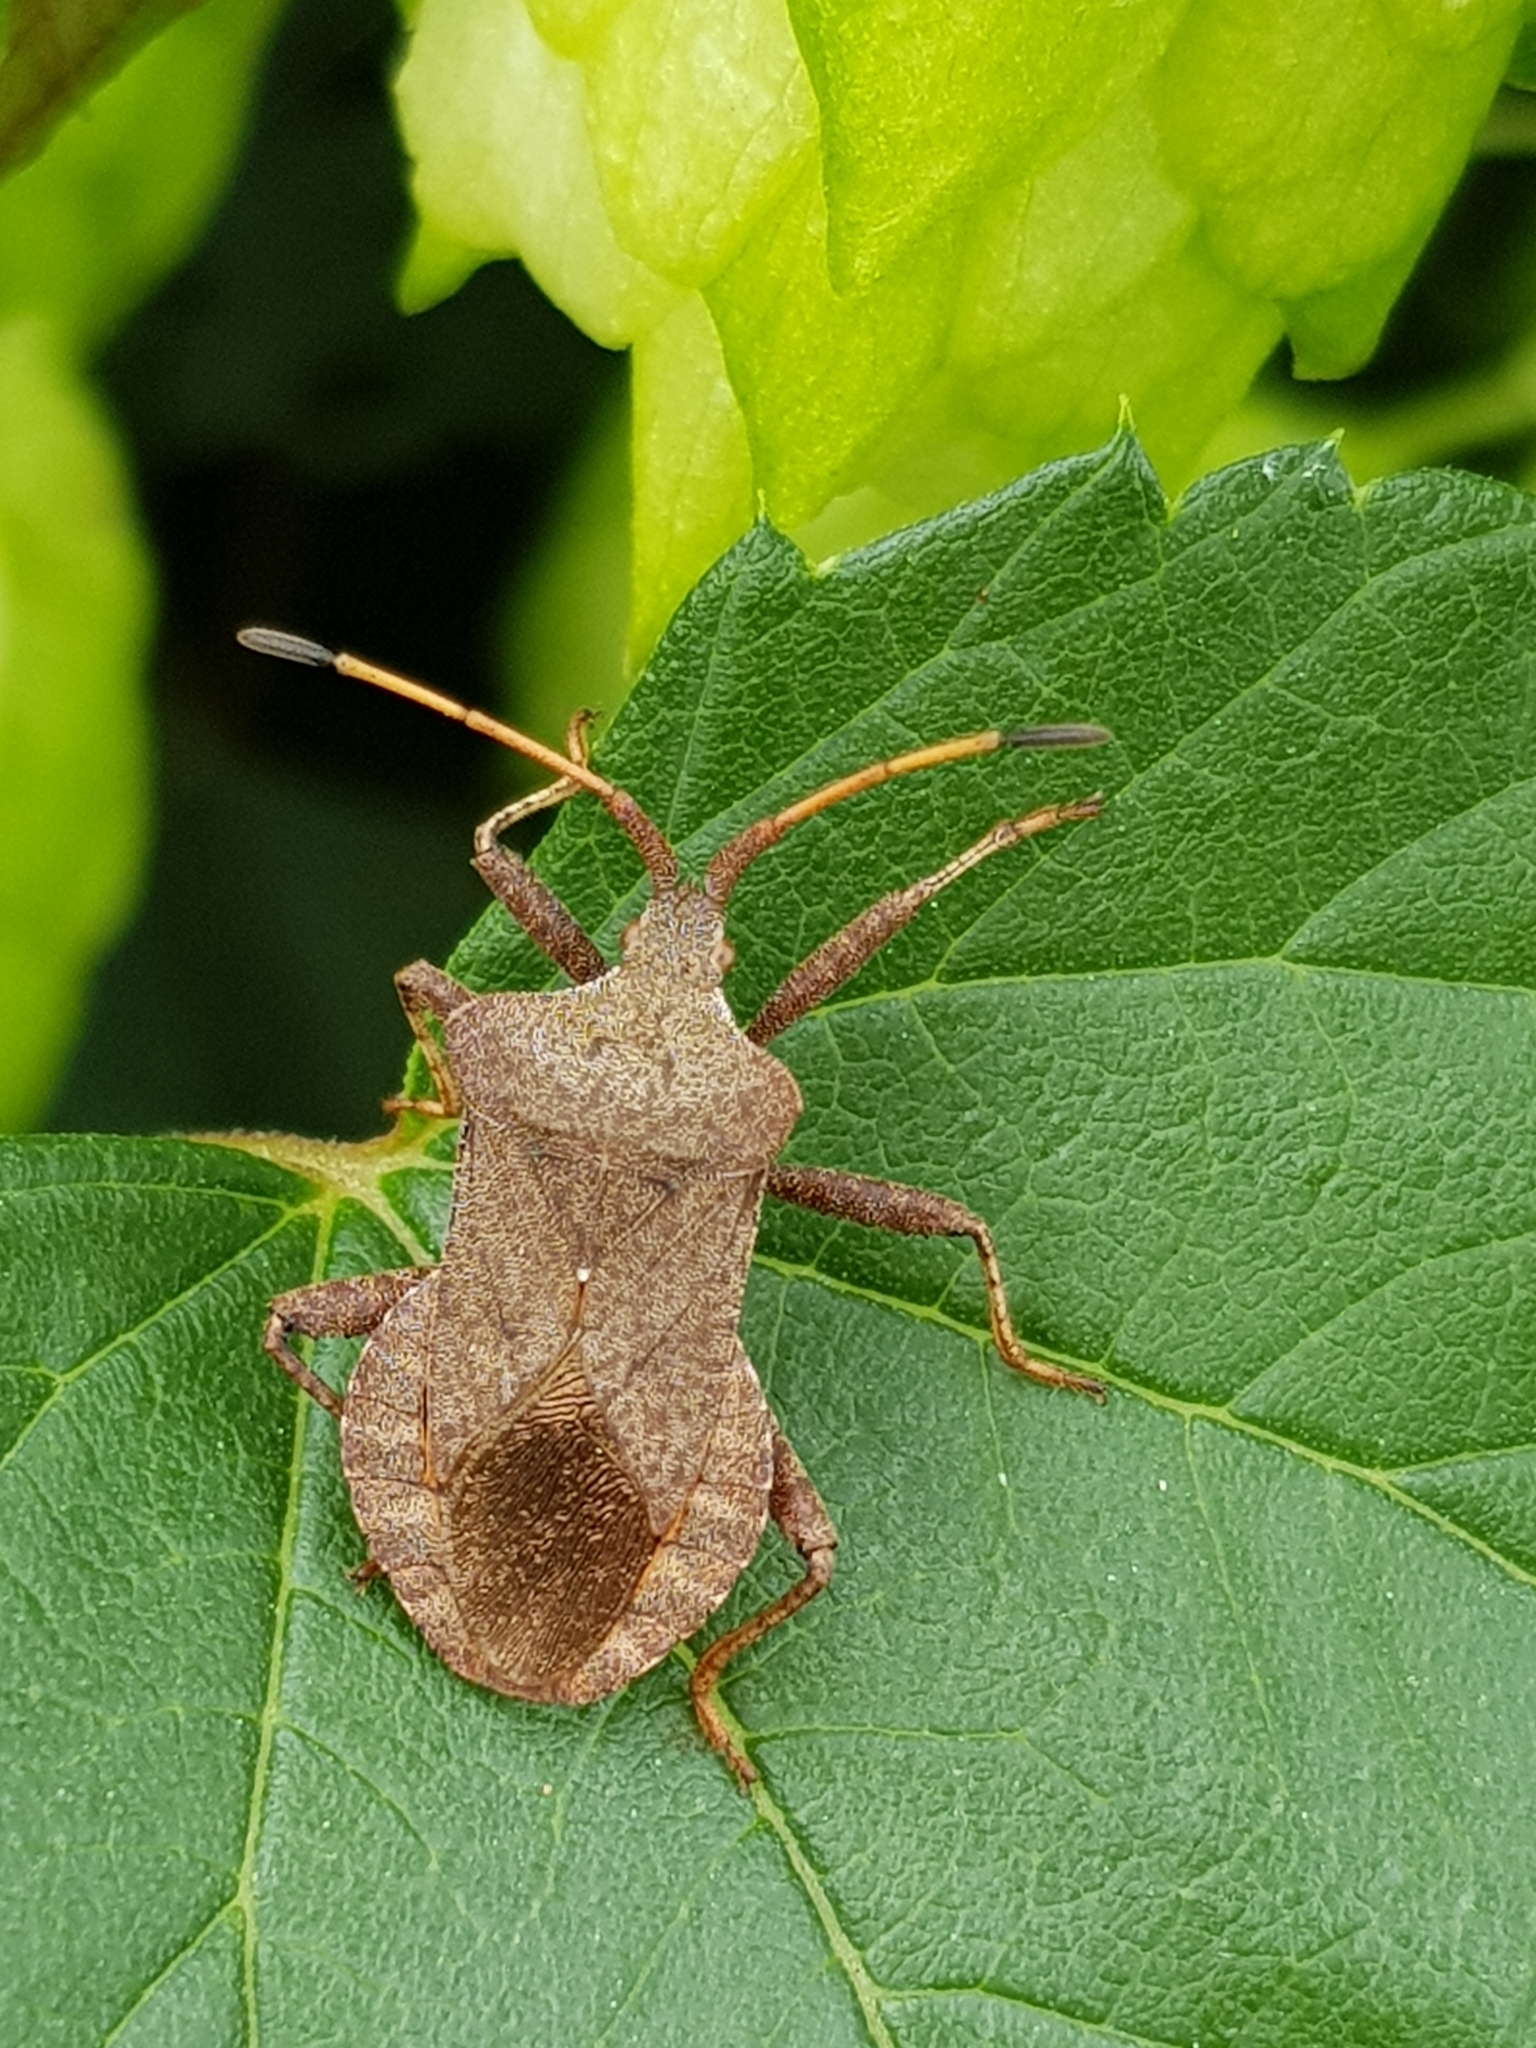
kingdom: Animalia
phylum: Arthropoda
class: Insecta
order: Hemiptera
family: Coreidae
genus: Coreus
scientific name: Coreus marginatus
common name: Dock bug
